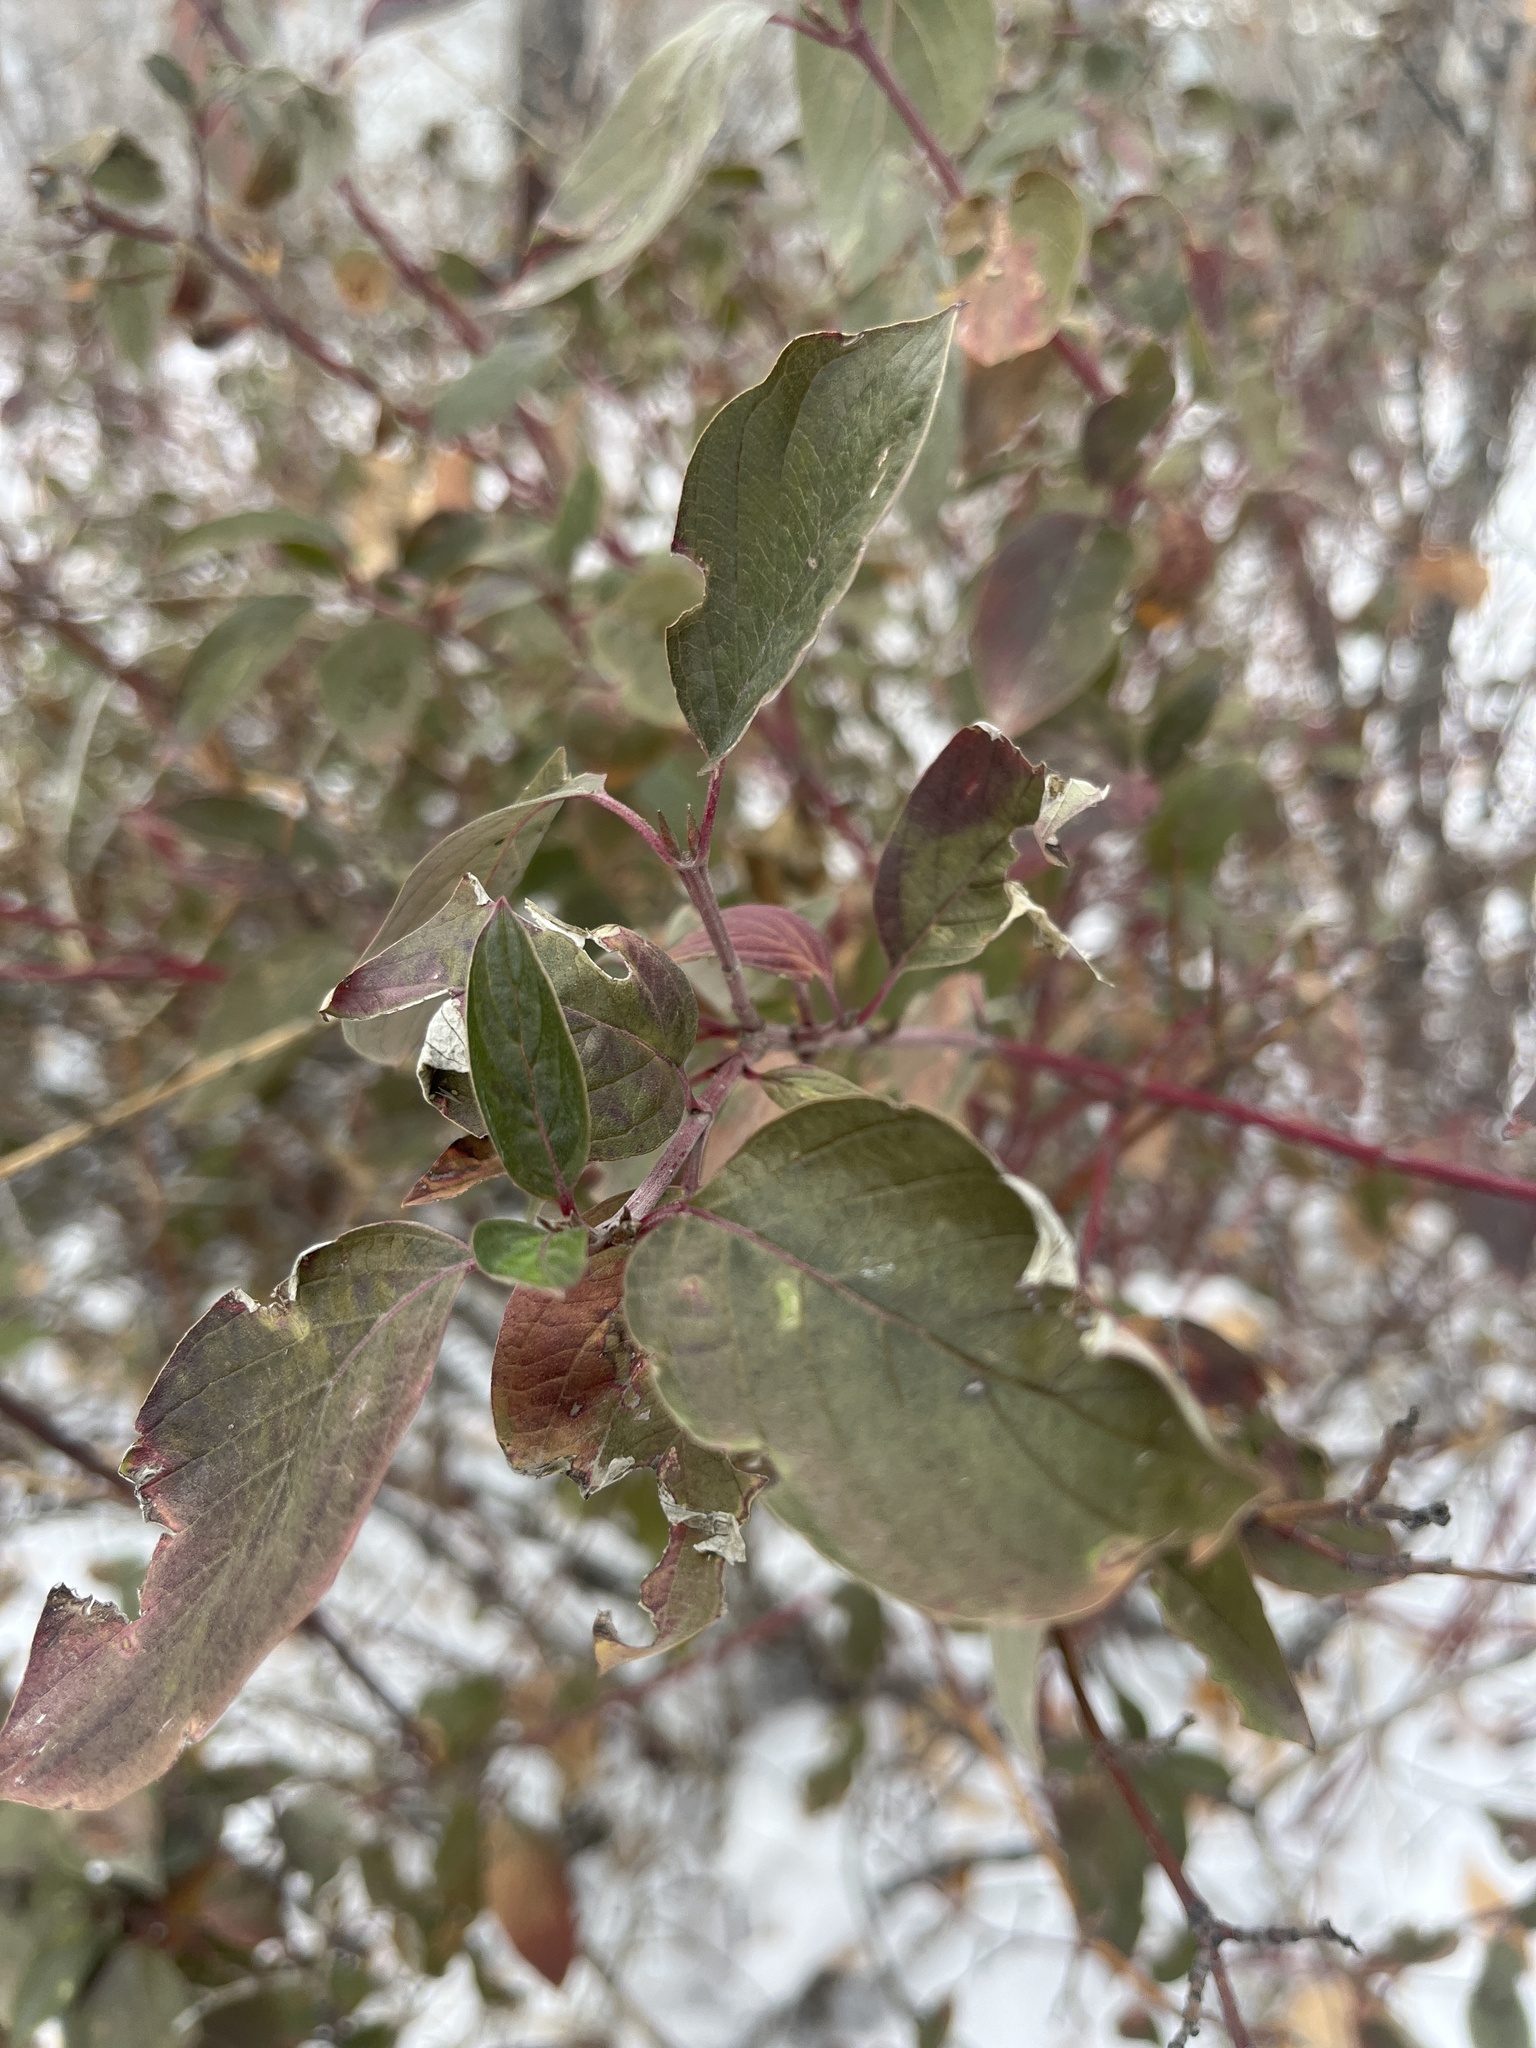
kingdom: Plantae
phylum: Tracheophyta
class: Magnoliopsida
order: Cornales
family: Cornaceae
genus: Cornus
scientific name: Cornus sericea
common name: Red-osier dogwood
